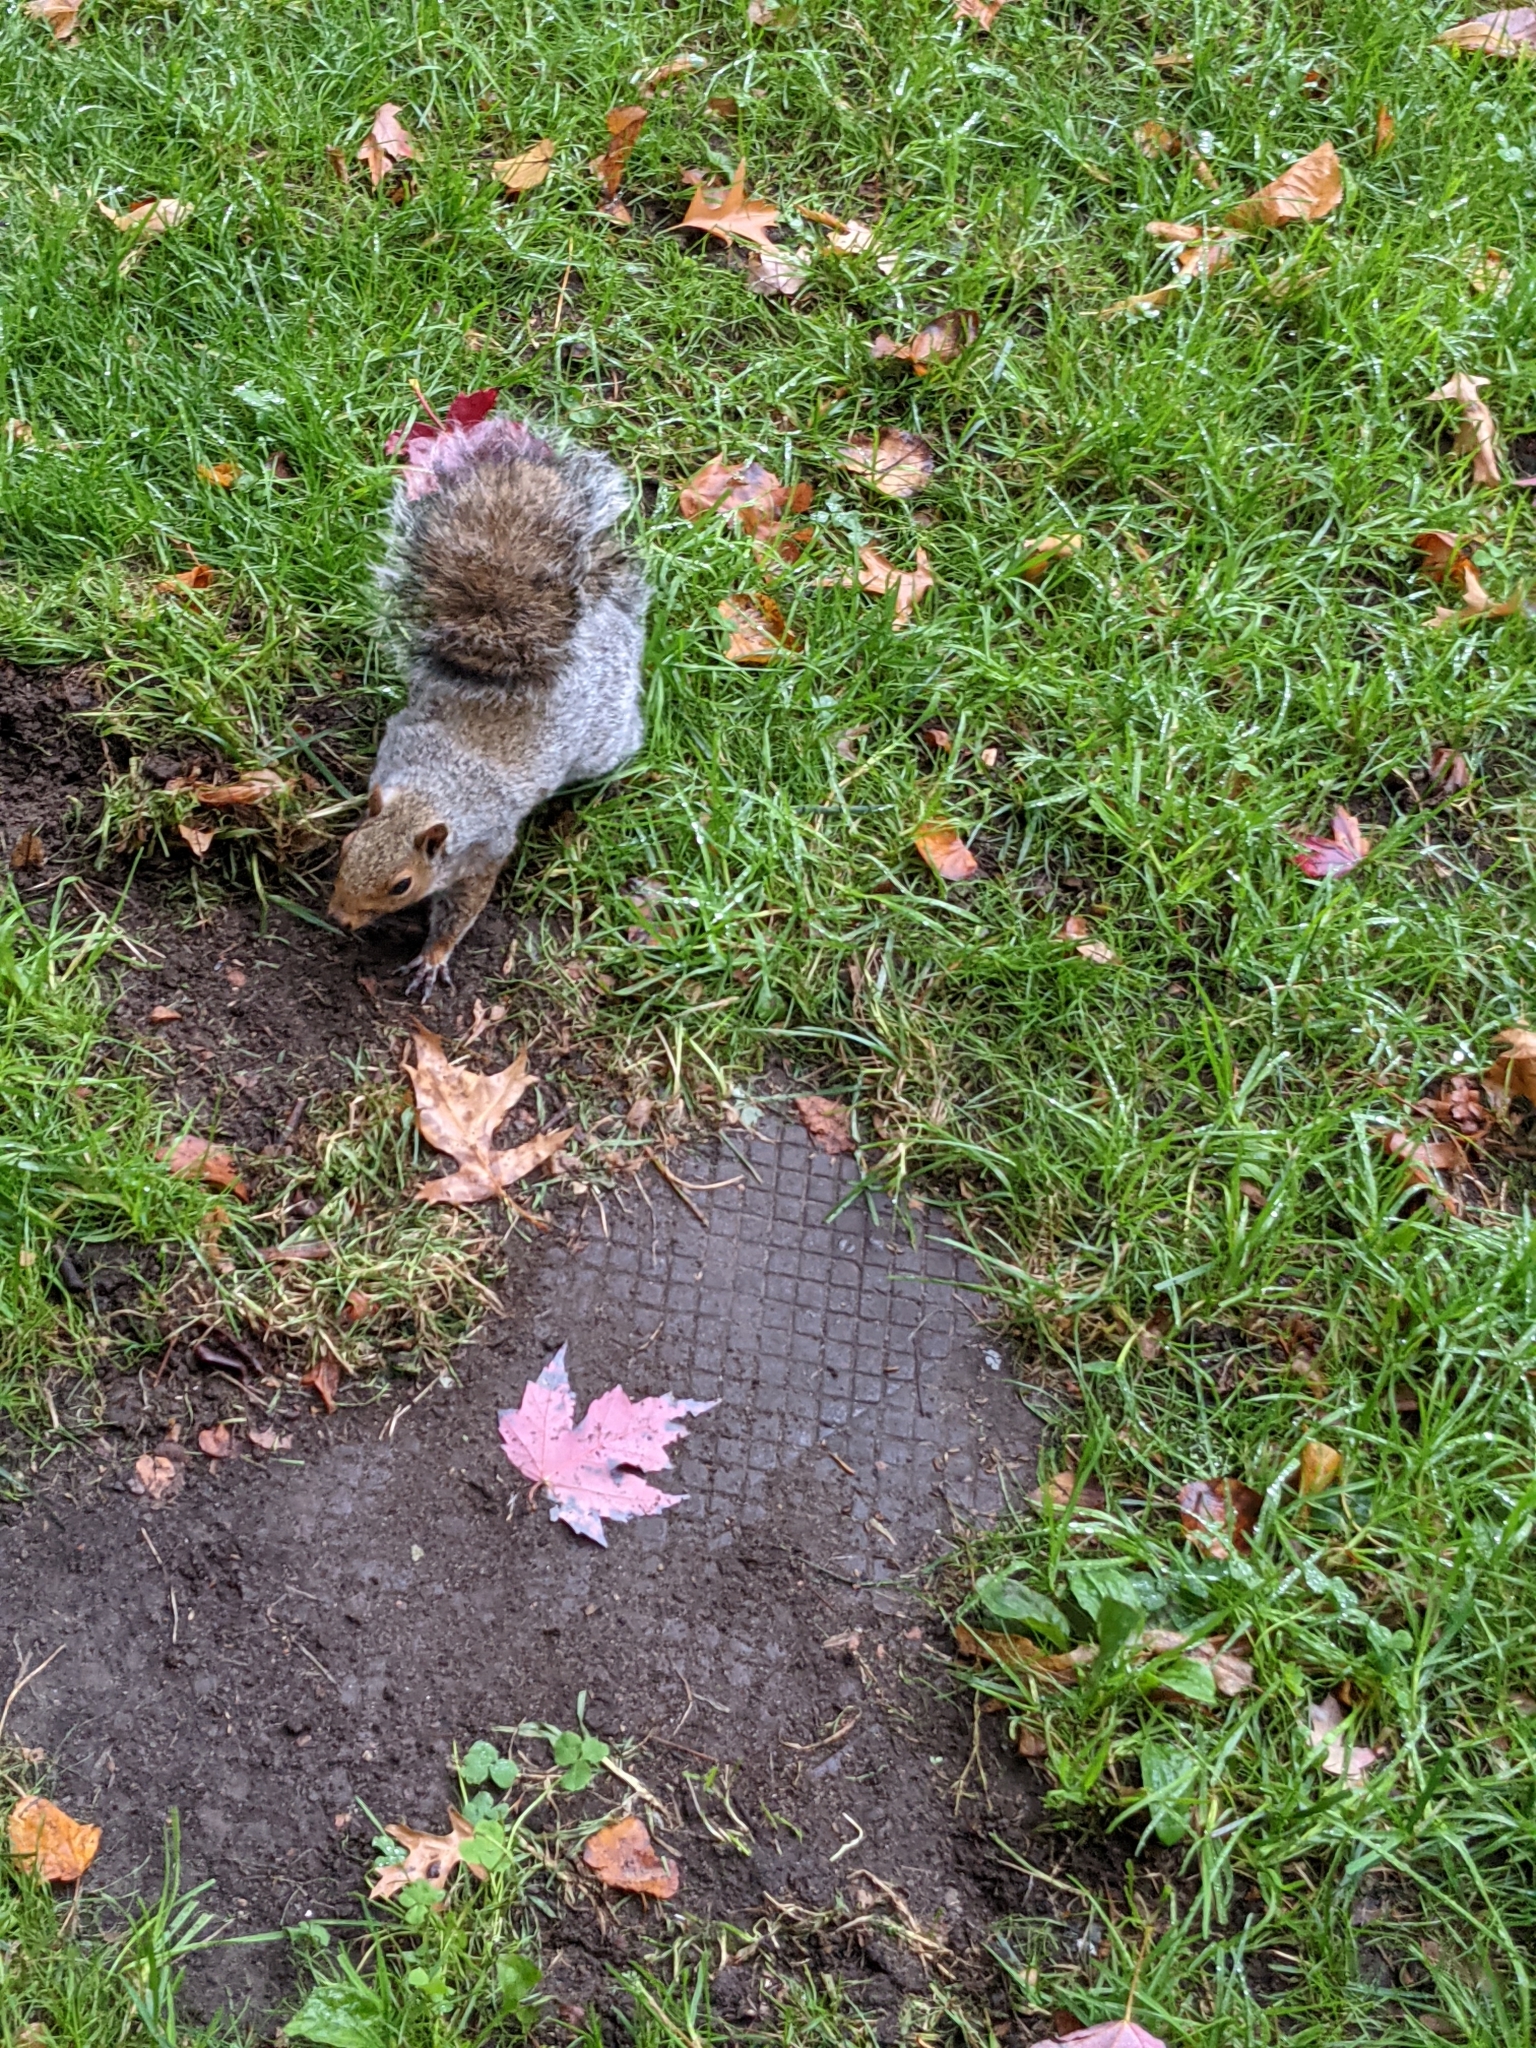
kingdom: Animalia
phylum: Chordata
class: Mammalia
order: Rodentia
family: Sciuridae
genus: Sciurus
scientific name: Sciurus carolinensis
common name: Eastern gray squirrel
